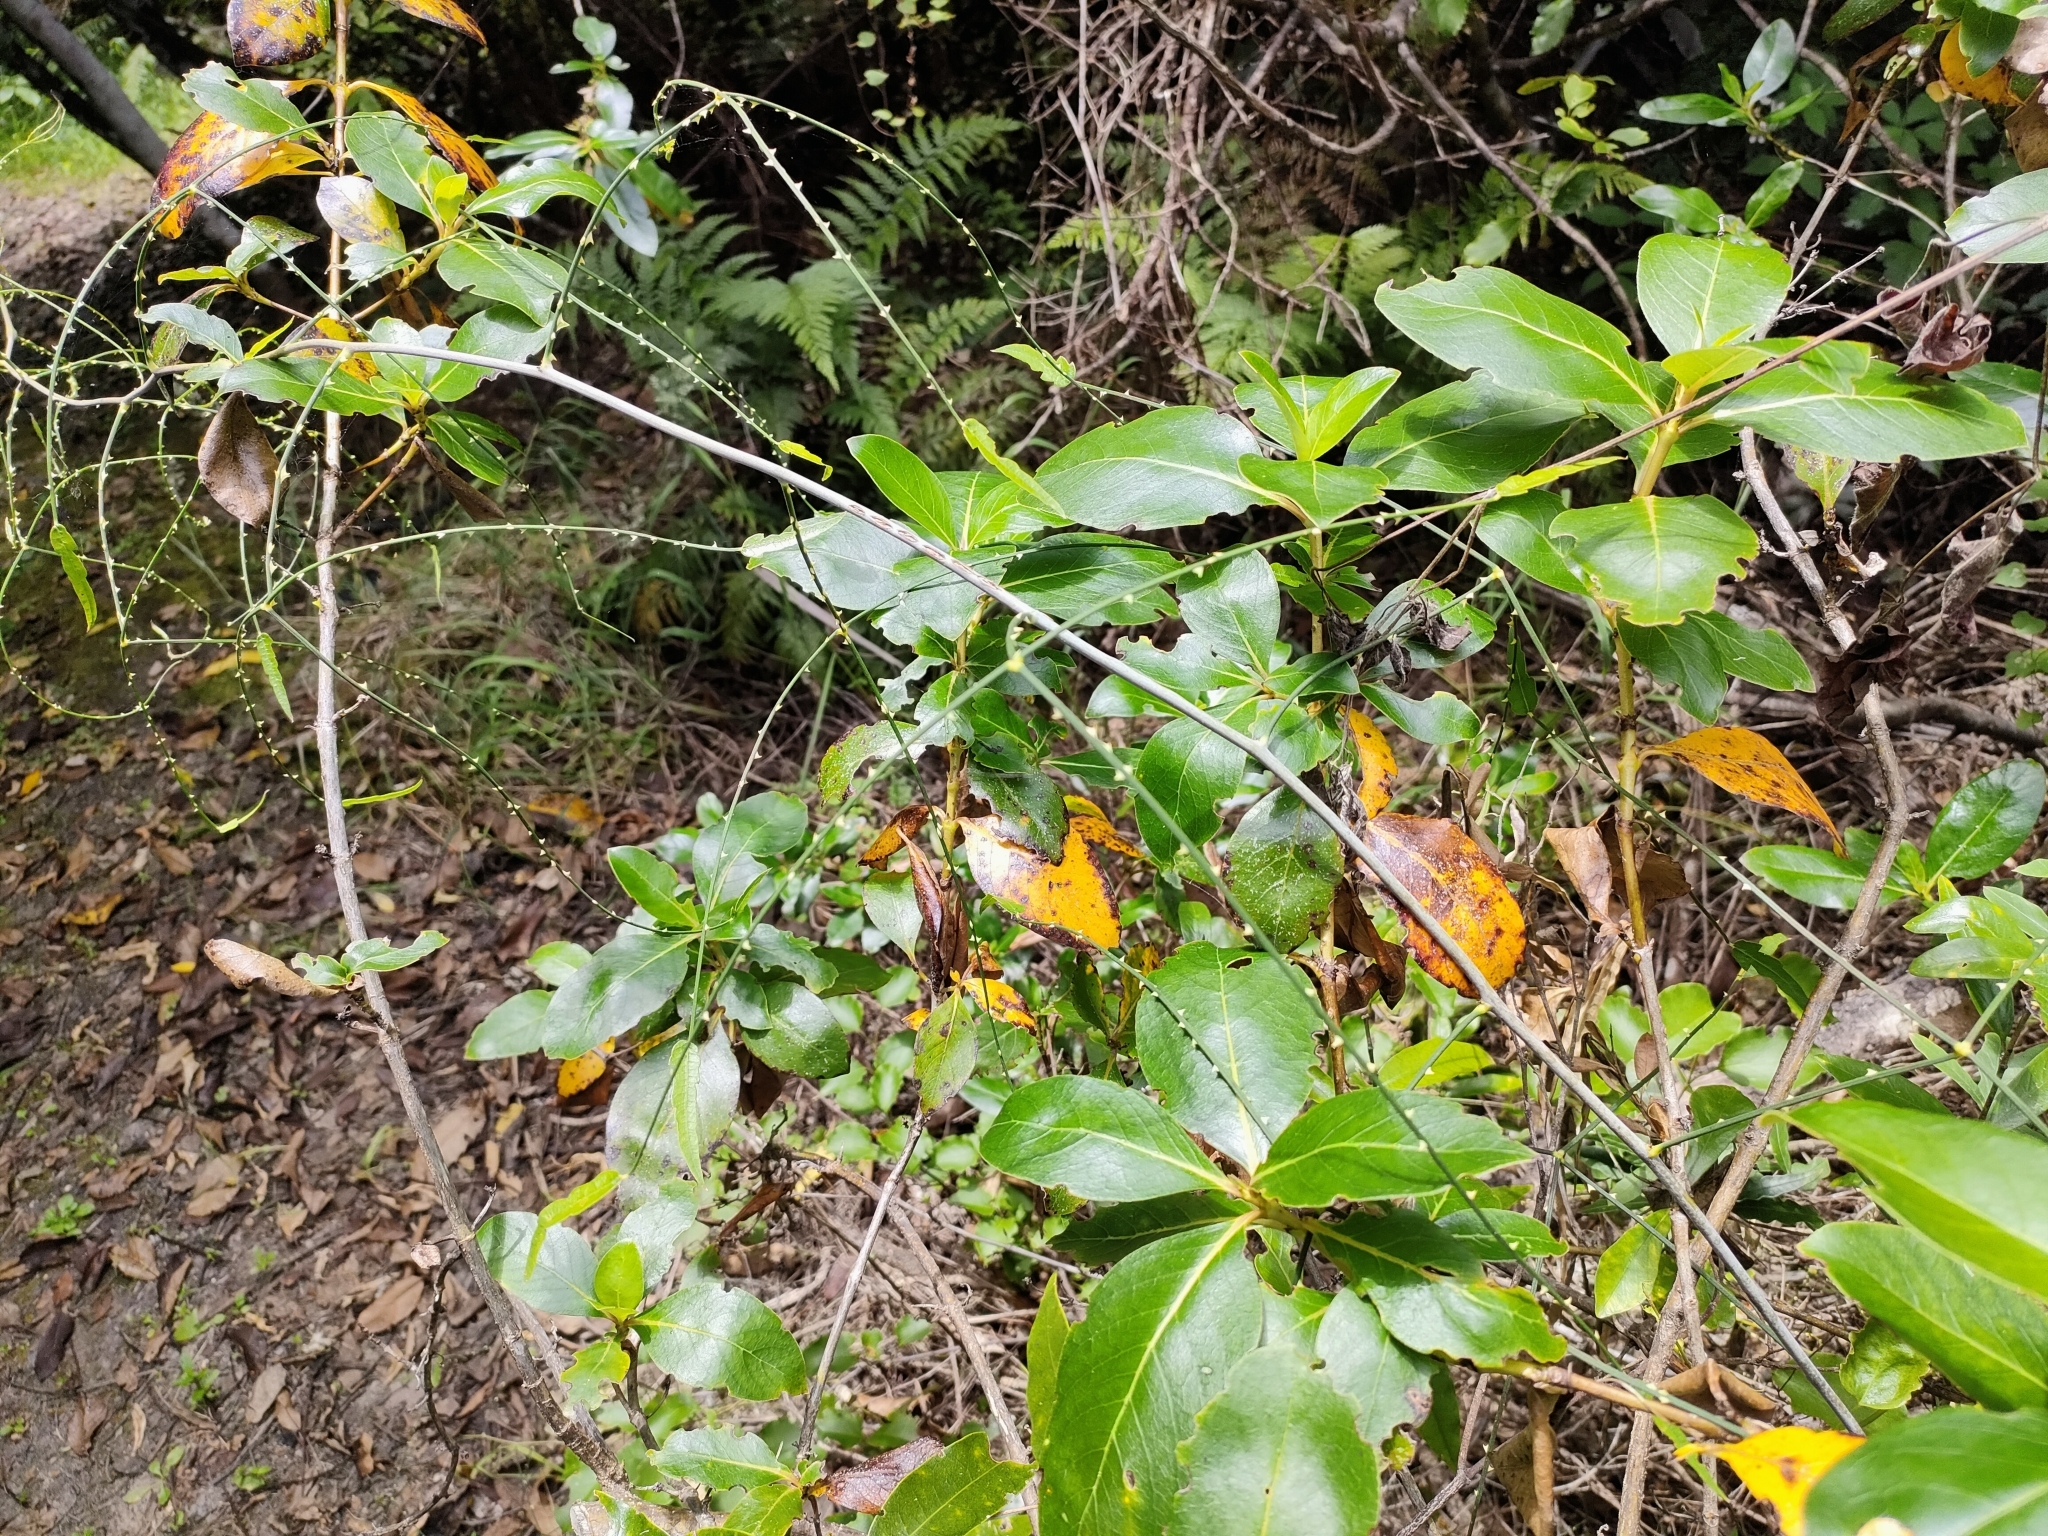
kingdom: Plantae
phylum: Tracheophyta
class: Magnoliopsida
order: Rosales
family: Rosaceae
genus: Rubus
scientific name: Rubus squarrosus
